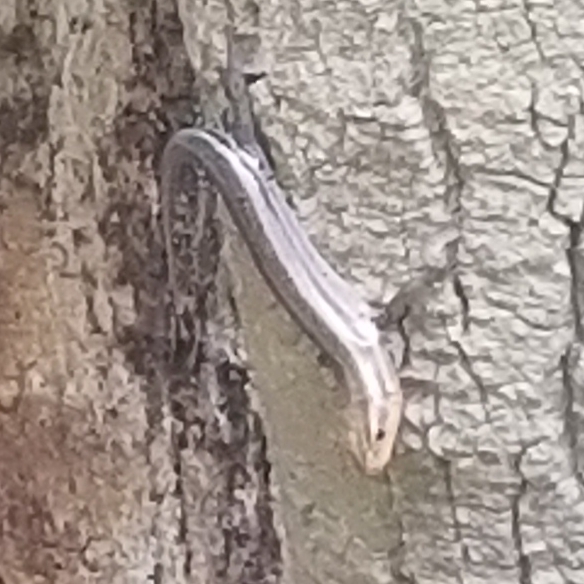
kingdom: Animalia
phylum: Chordata
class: Squamata
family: Scincidae
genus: Plestiodon
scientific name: Plestiodon fasciatus
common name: Five-lined skink
